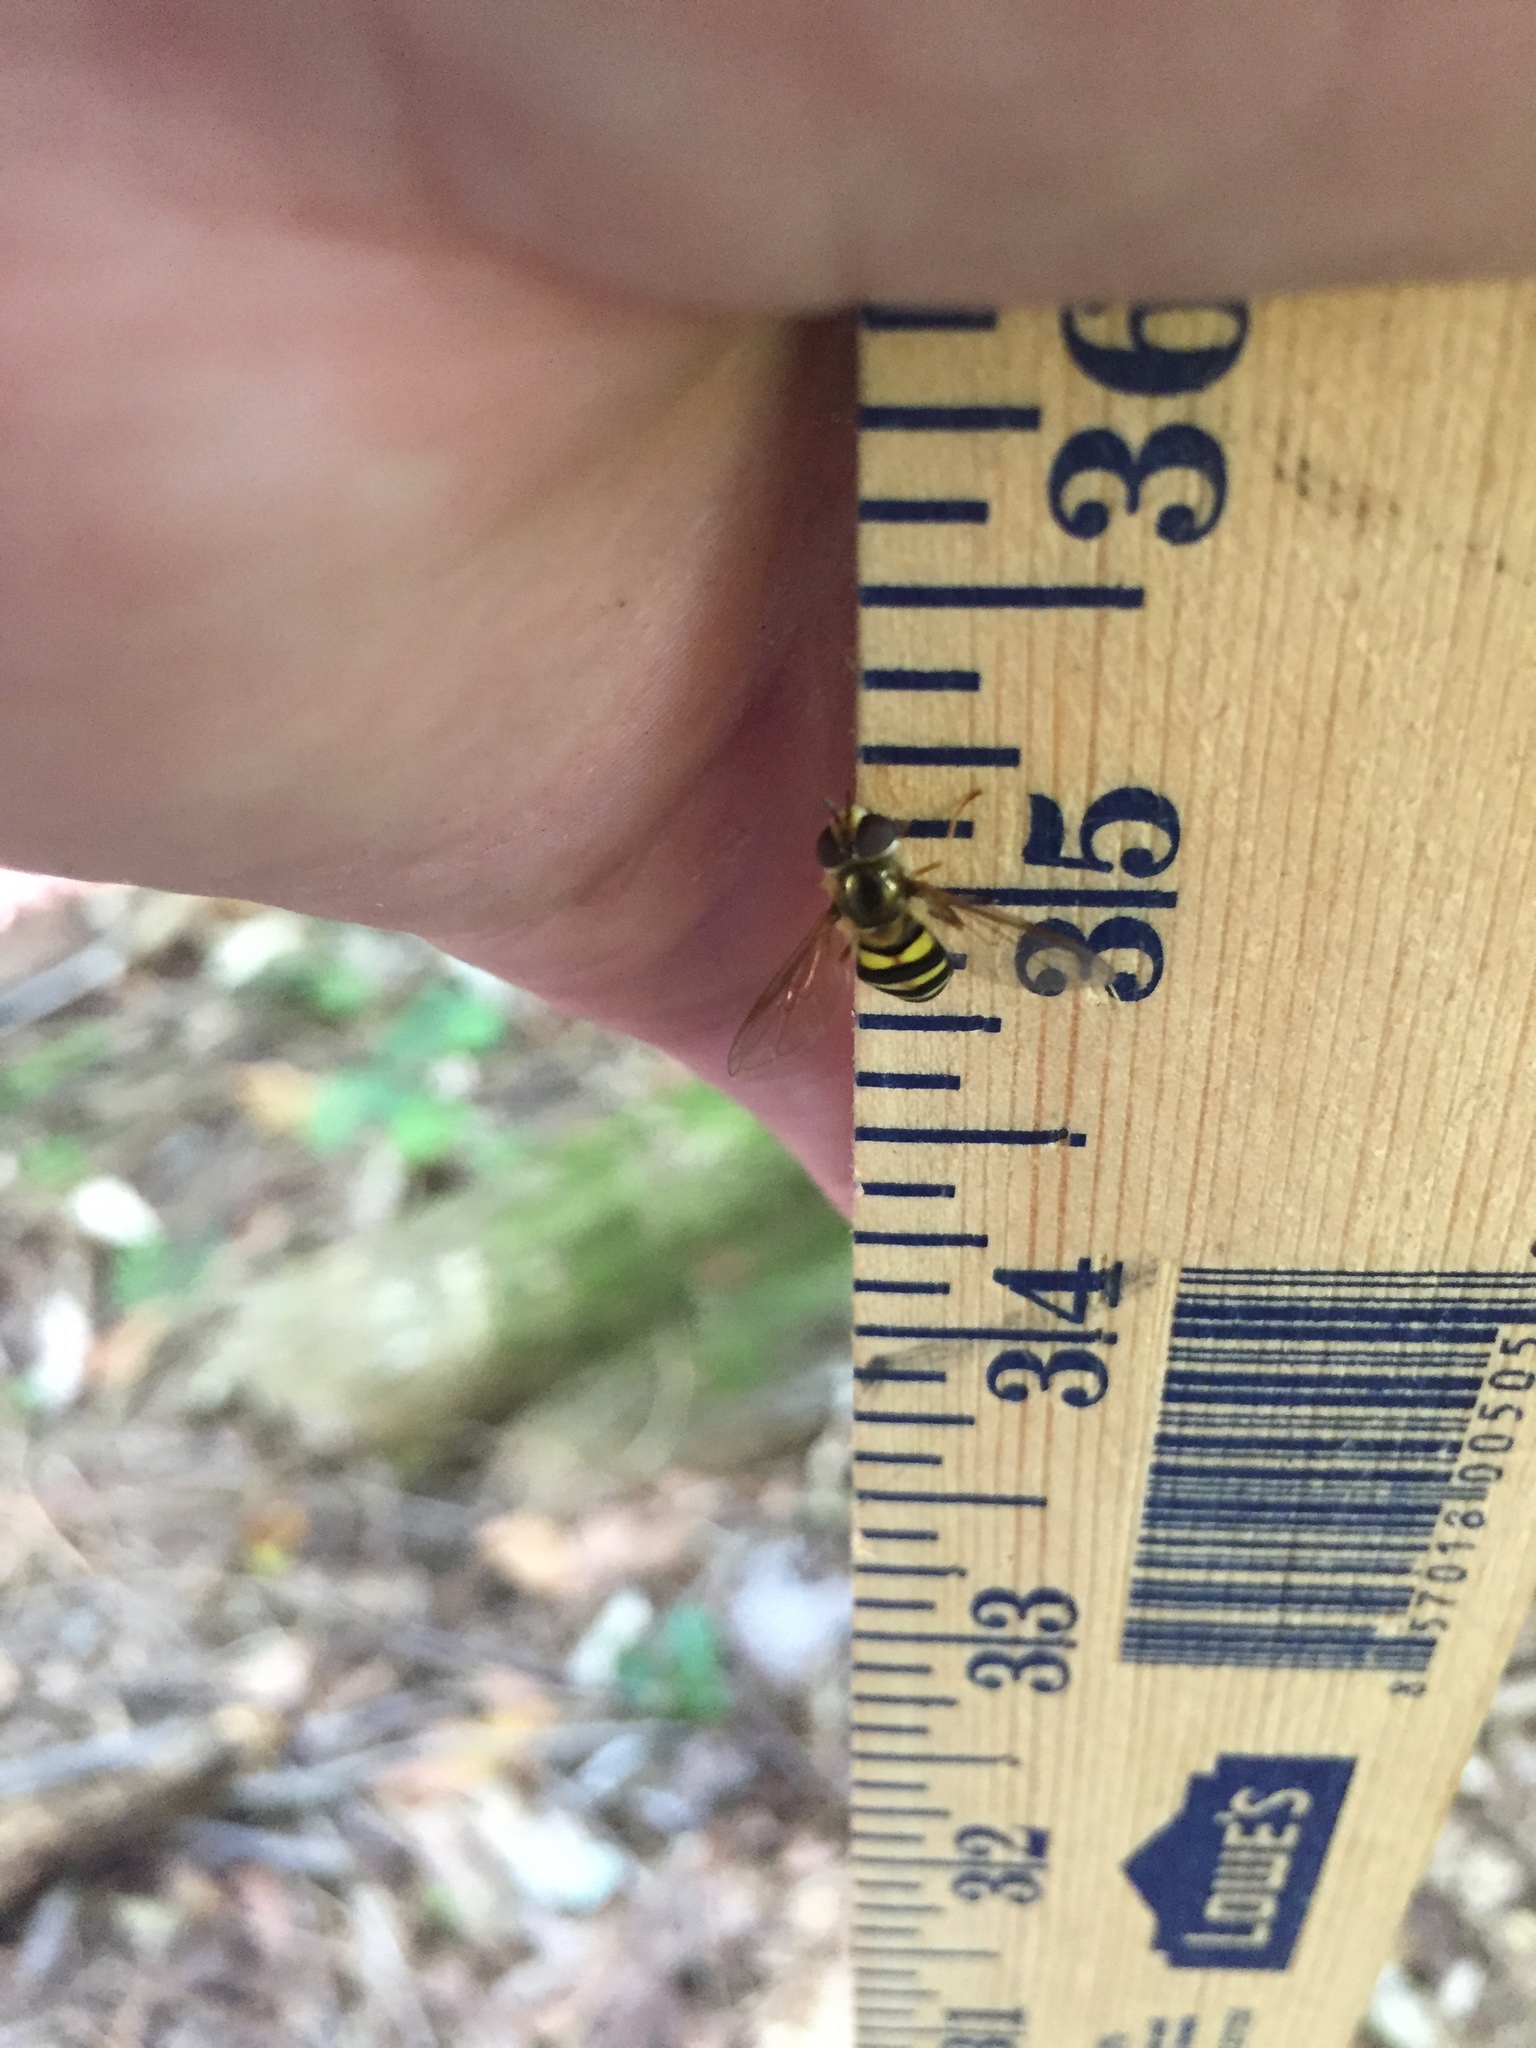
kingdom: Animalia
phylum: Arthropoda
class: Insecta
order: Diptera
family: Syrphidae
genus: Eupeodes
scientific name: Eupeodes
